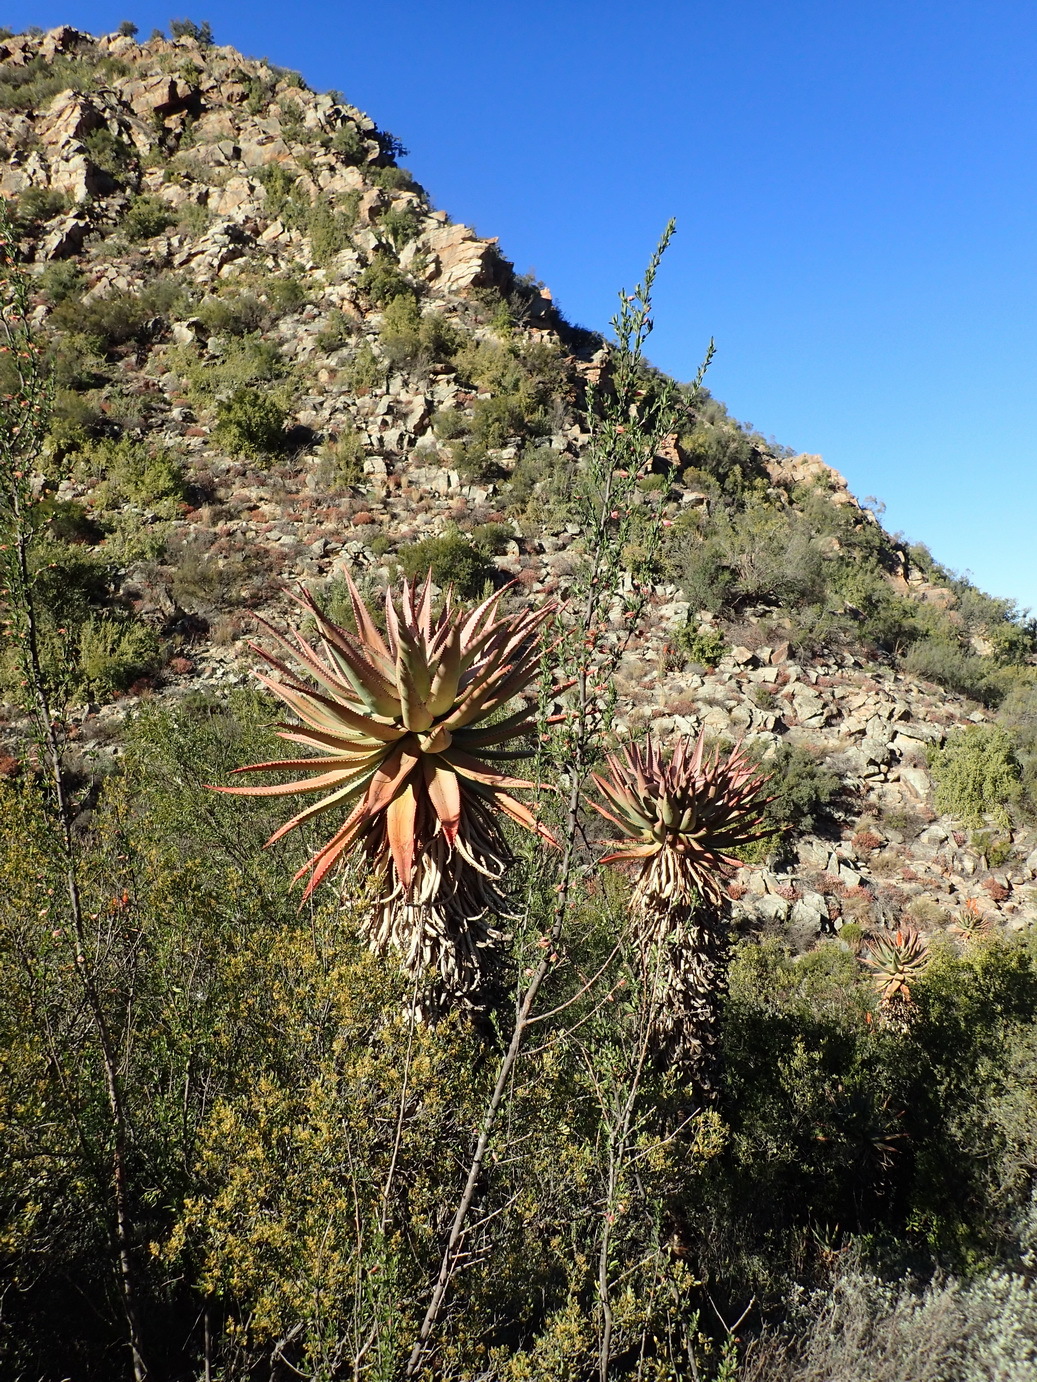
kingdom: Plantae
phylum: Tracheophyta
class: Liliopsida
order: Asparagales
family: Asphodelaceae
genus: Aloe
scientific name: Aloe ferox
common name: Bitter aloe
